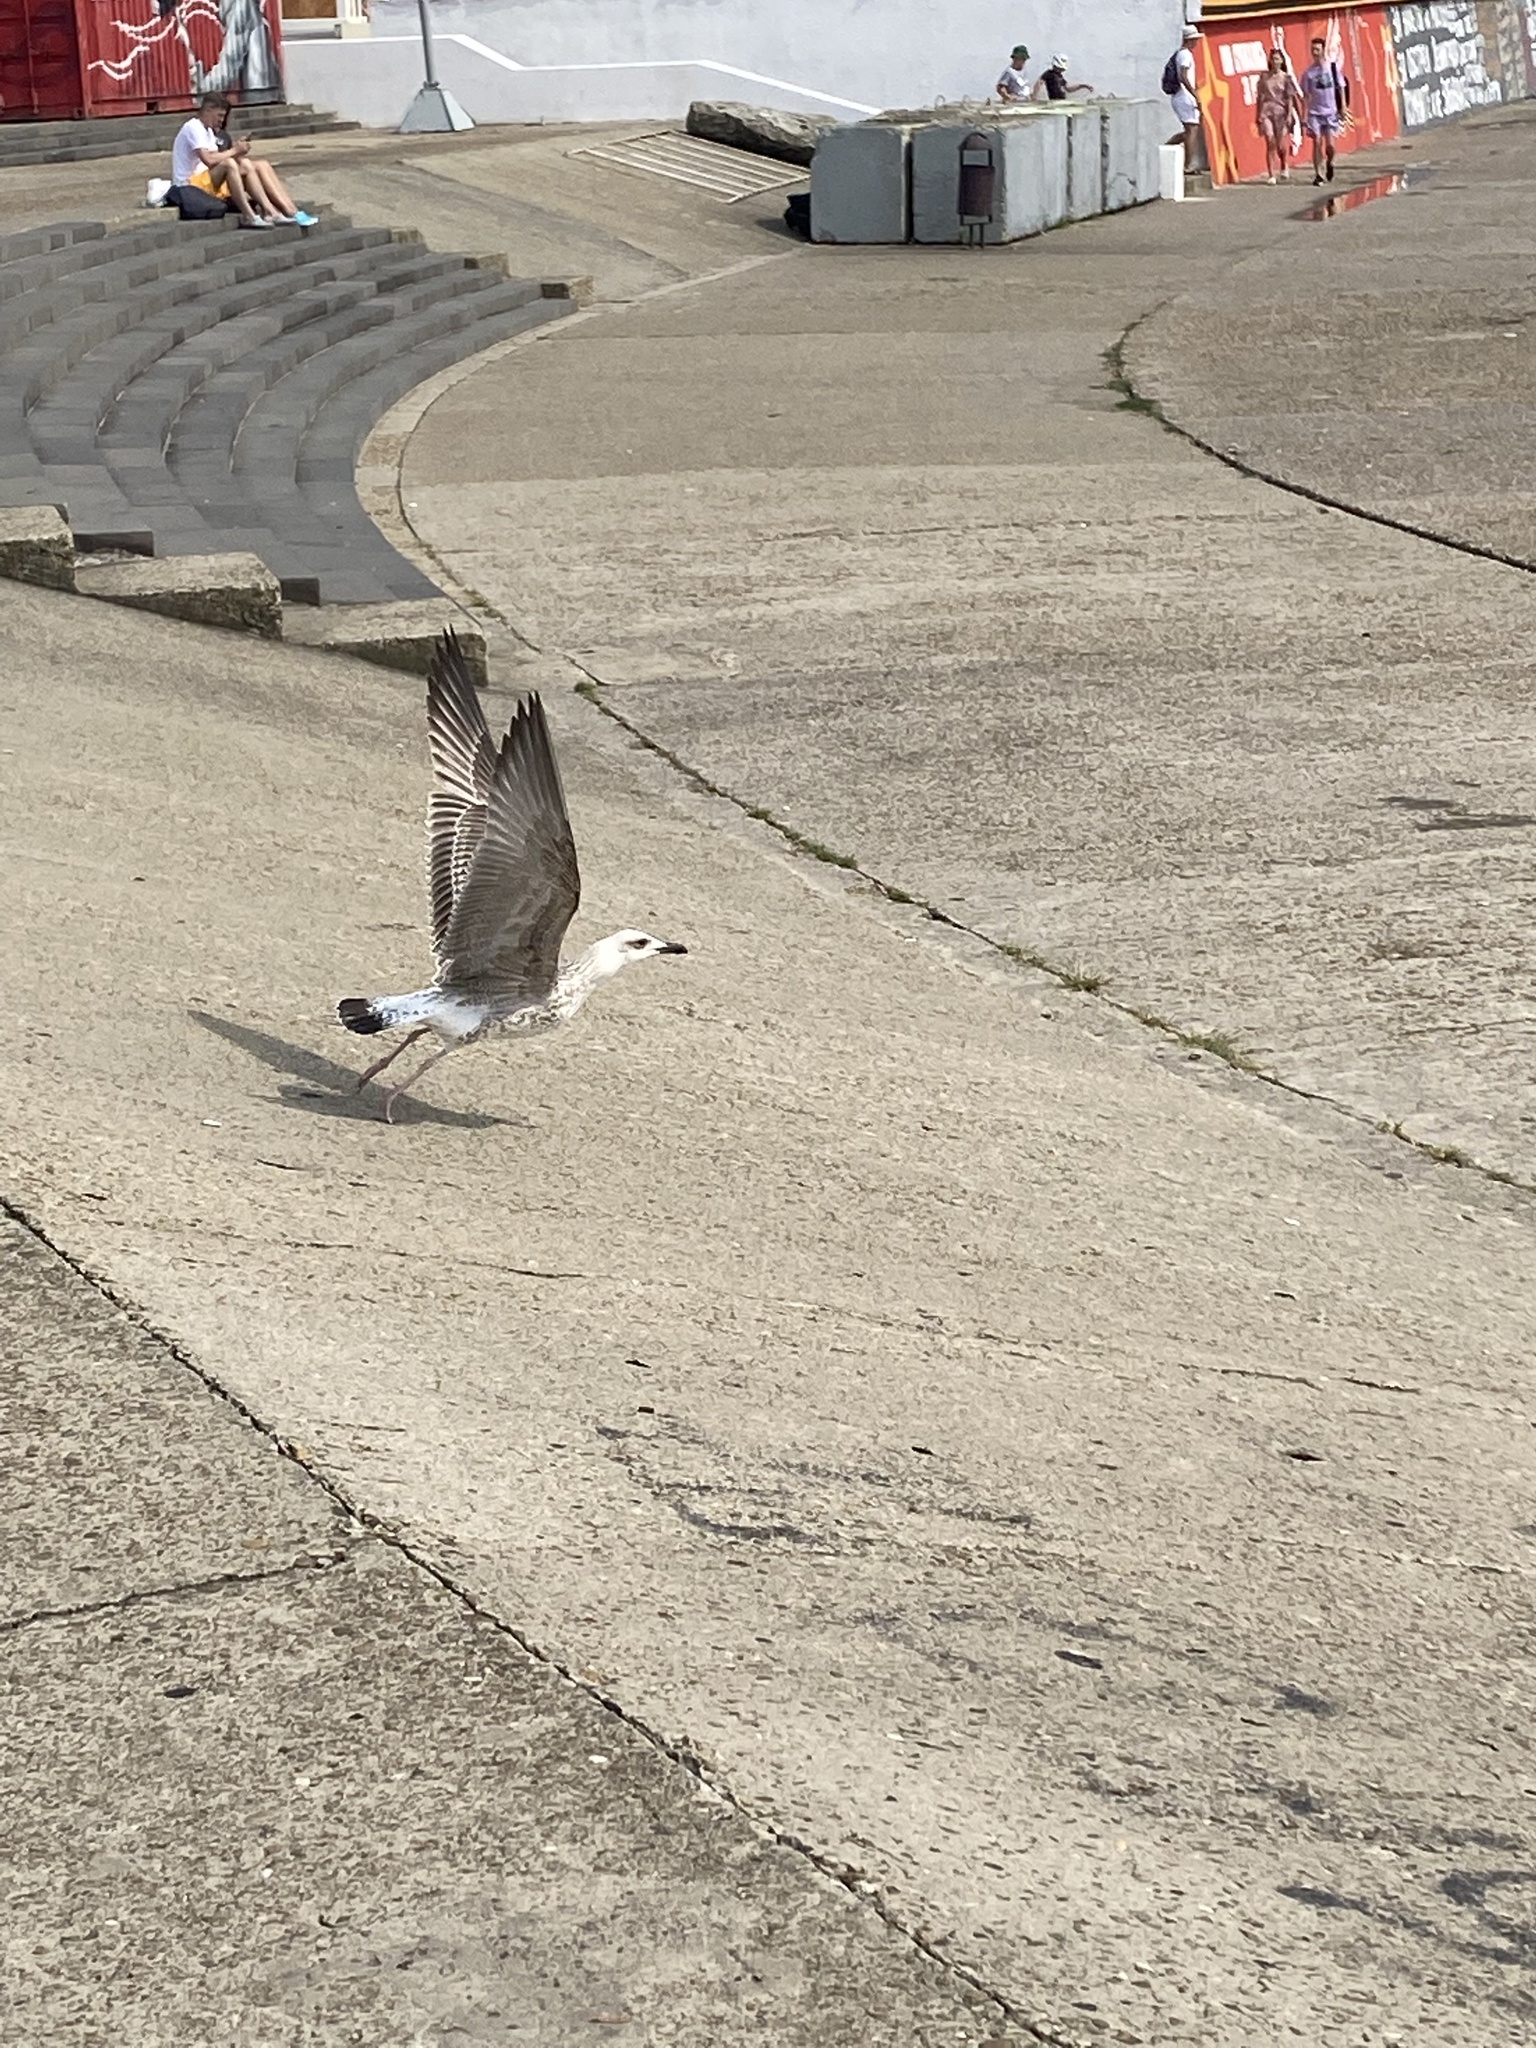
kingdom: Animalia
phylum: Chordata
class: Aves
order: Charadriiformes
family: Laridae
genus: Larus
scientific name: Larus michahellis
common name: Yellow-legged gull
